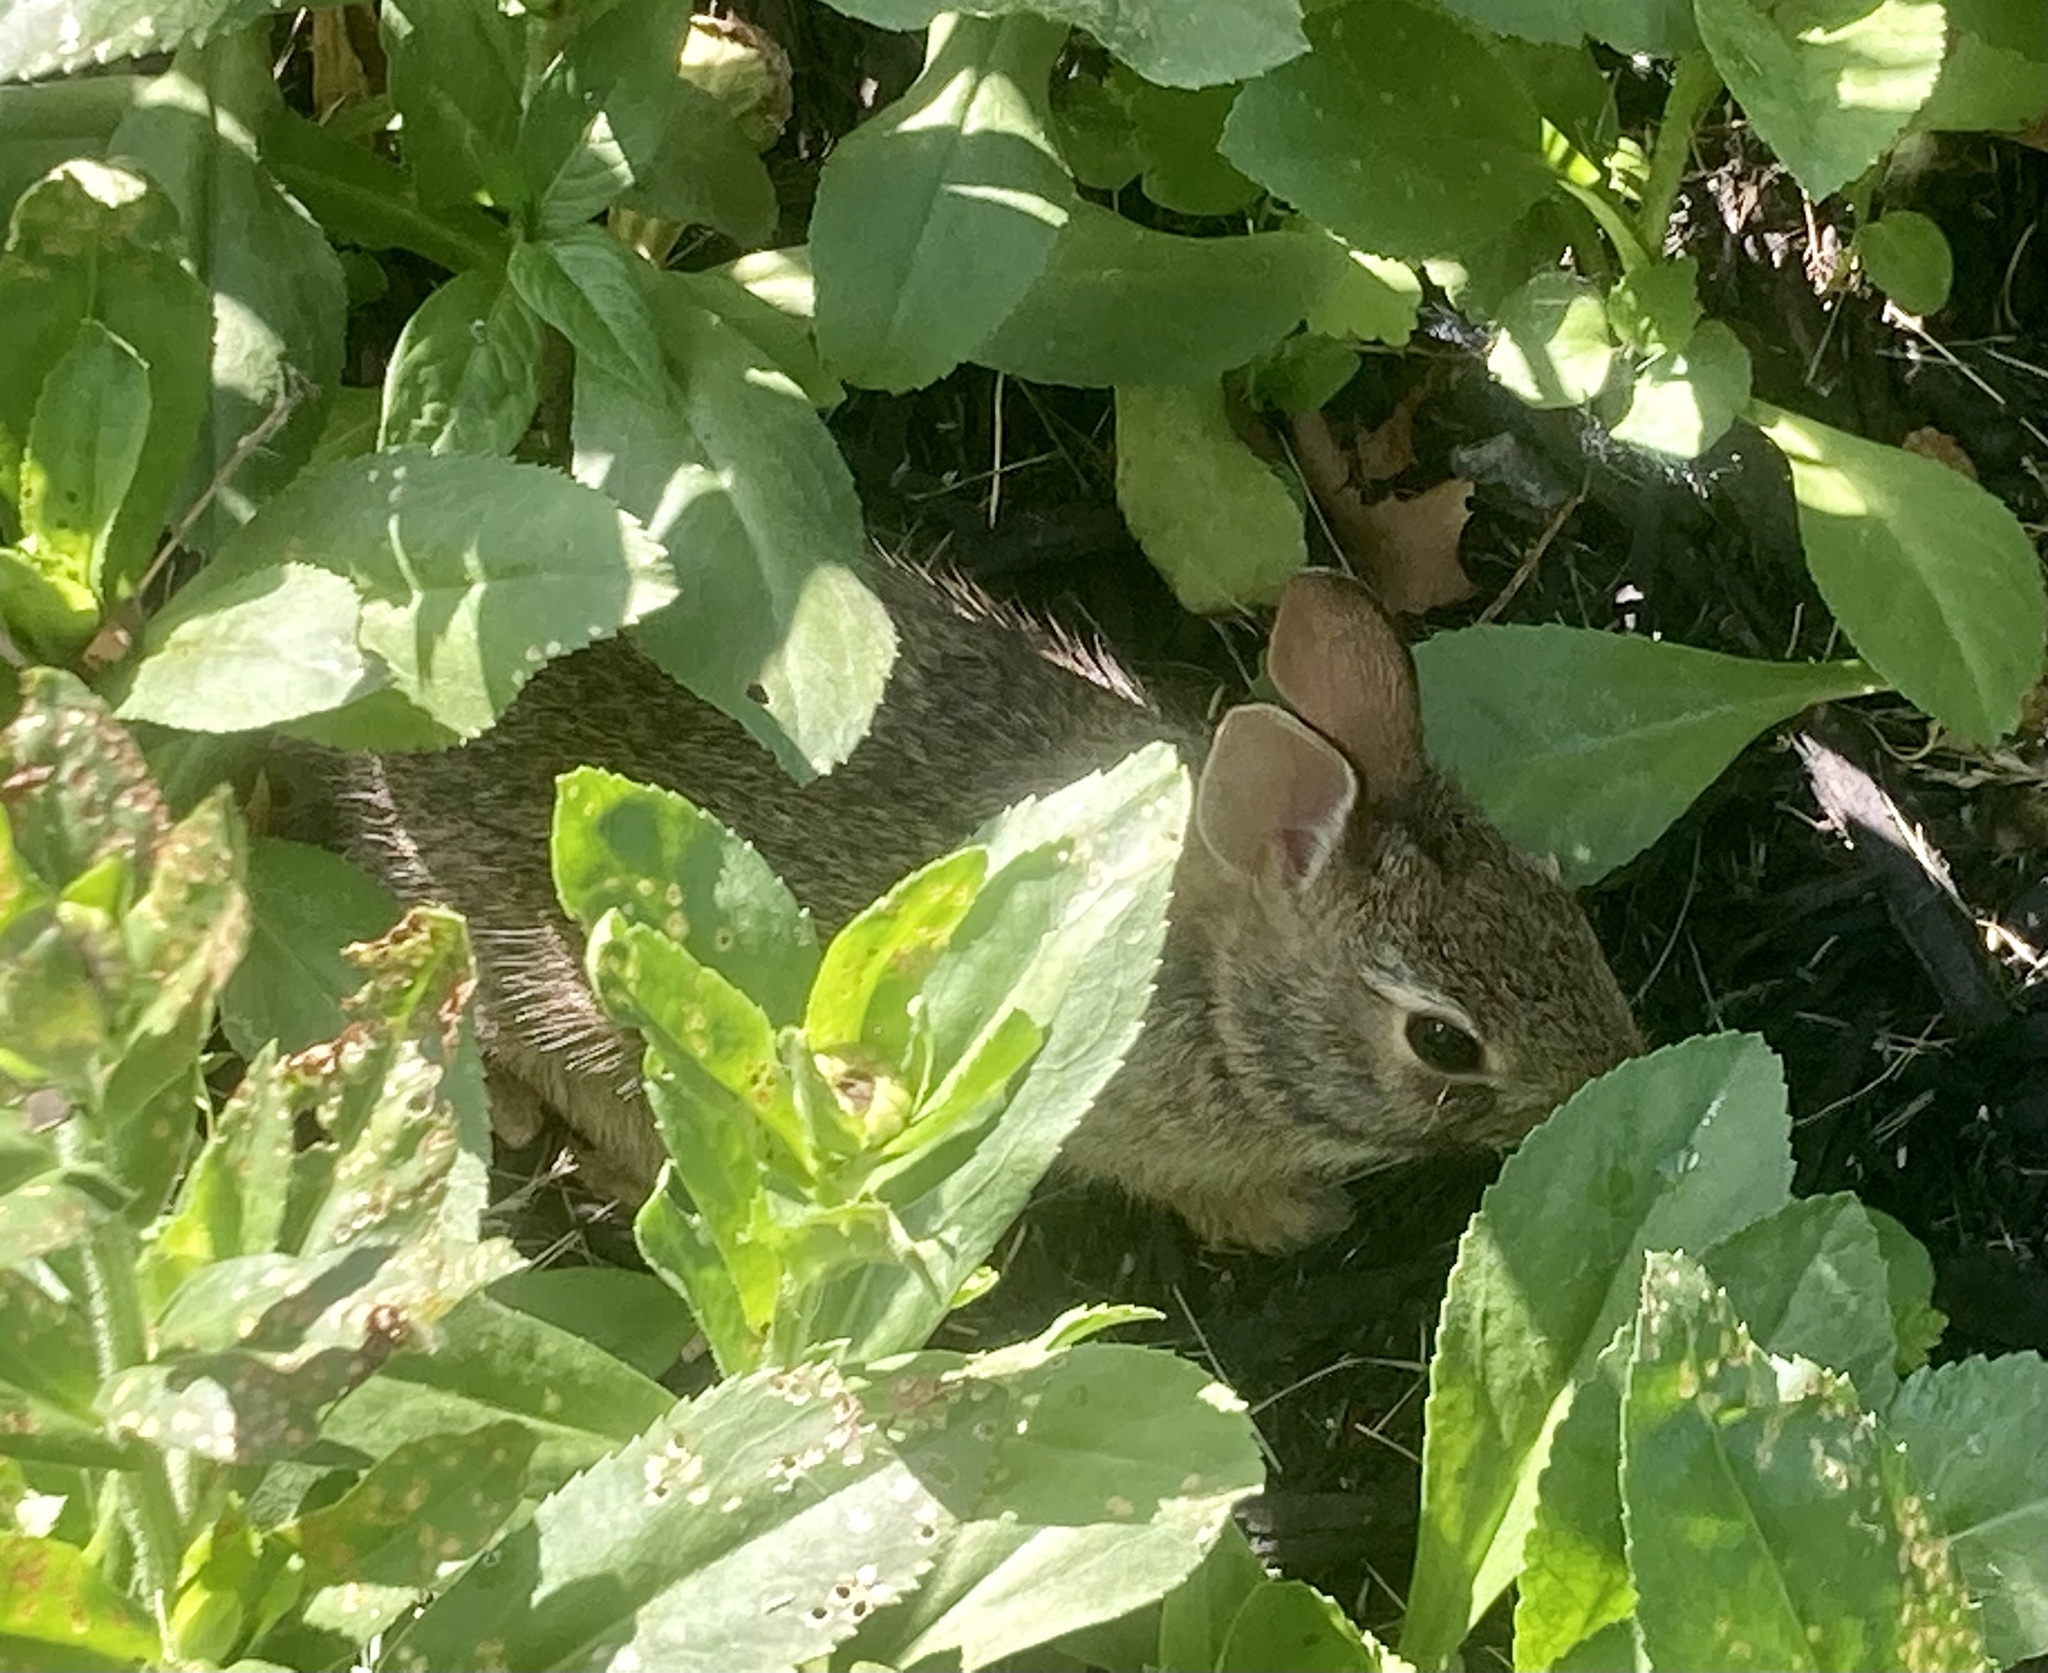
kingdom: Animalia
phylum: Chordata
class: Mammalia
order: Lagomorpha
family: Leporidae
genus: Sylvilagus
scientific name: Sylvilagus floridanus
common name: Eastern cottontail
